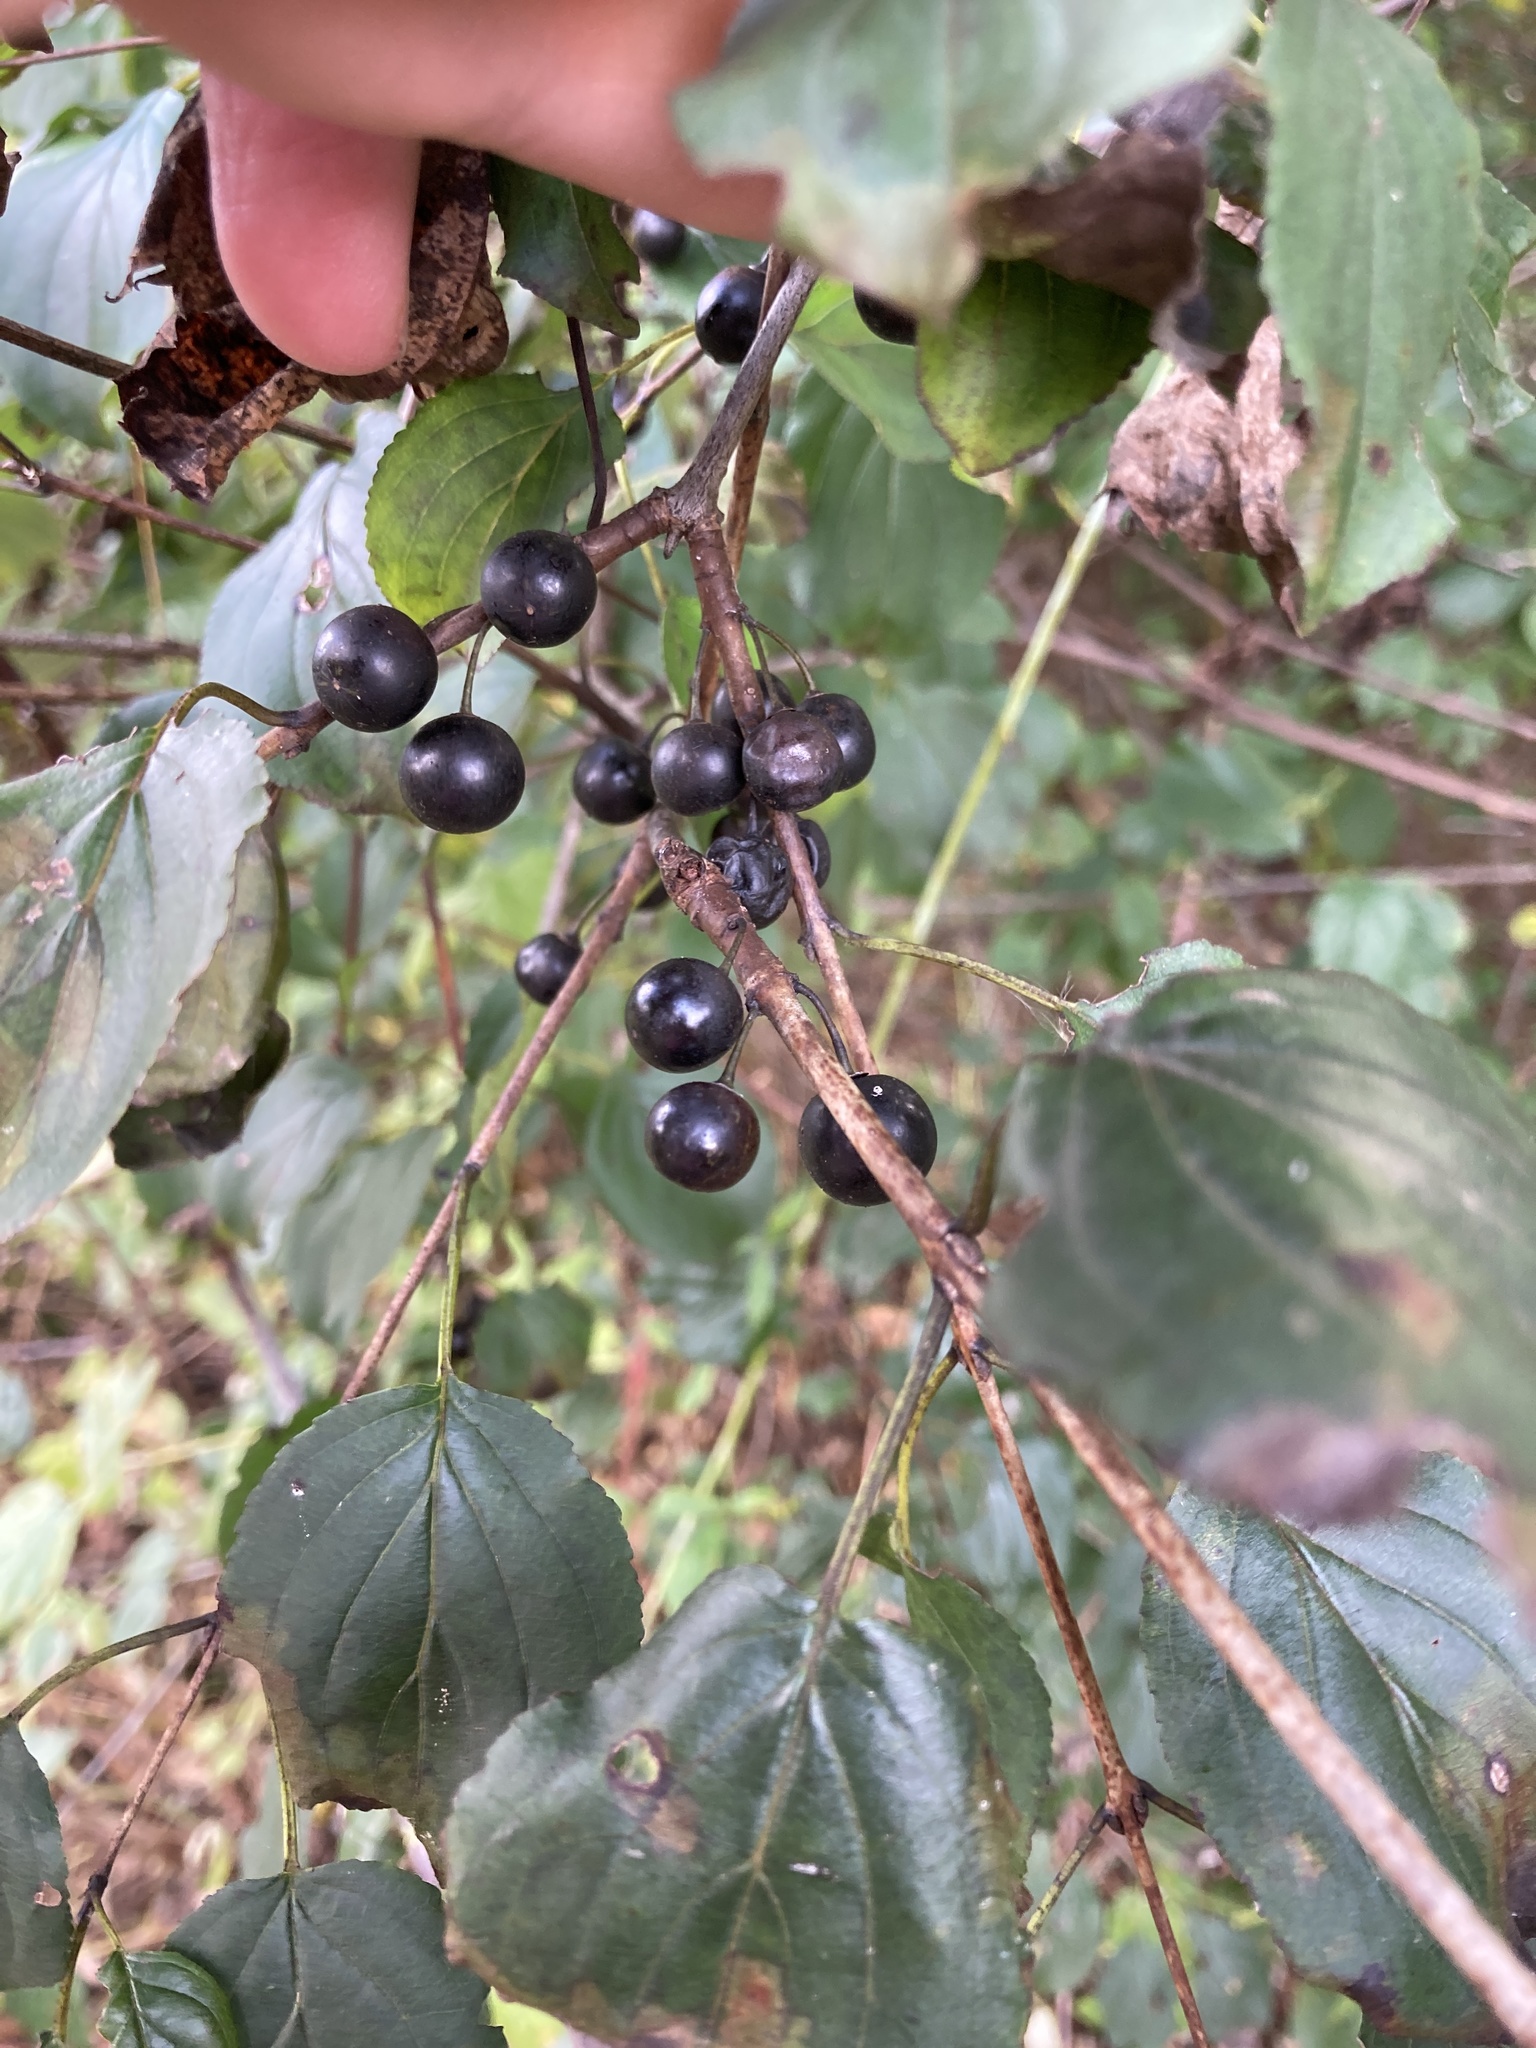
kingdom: Plantae
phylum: Tracheophyta
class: Magnoliopsida
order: Rosales
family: Rhamnaceae
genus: Rhamnus
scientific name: Rhamnus cathartica
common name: Common buckthorn
